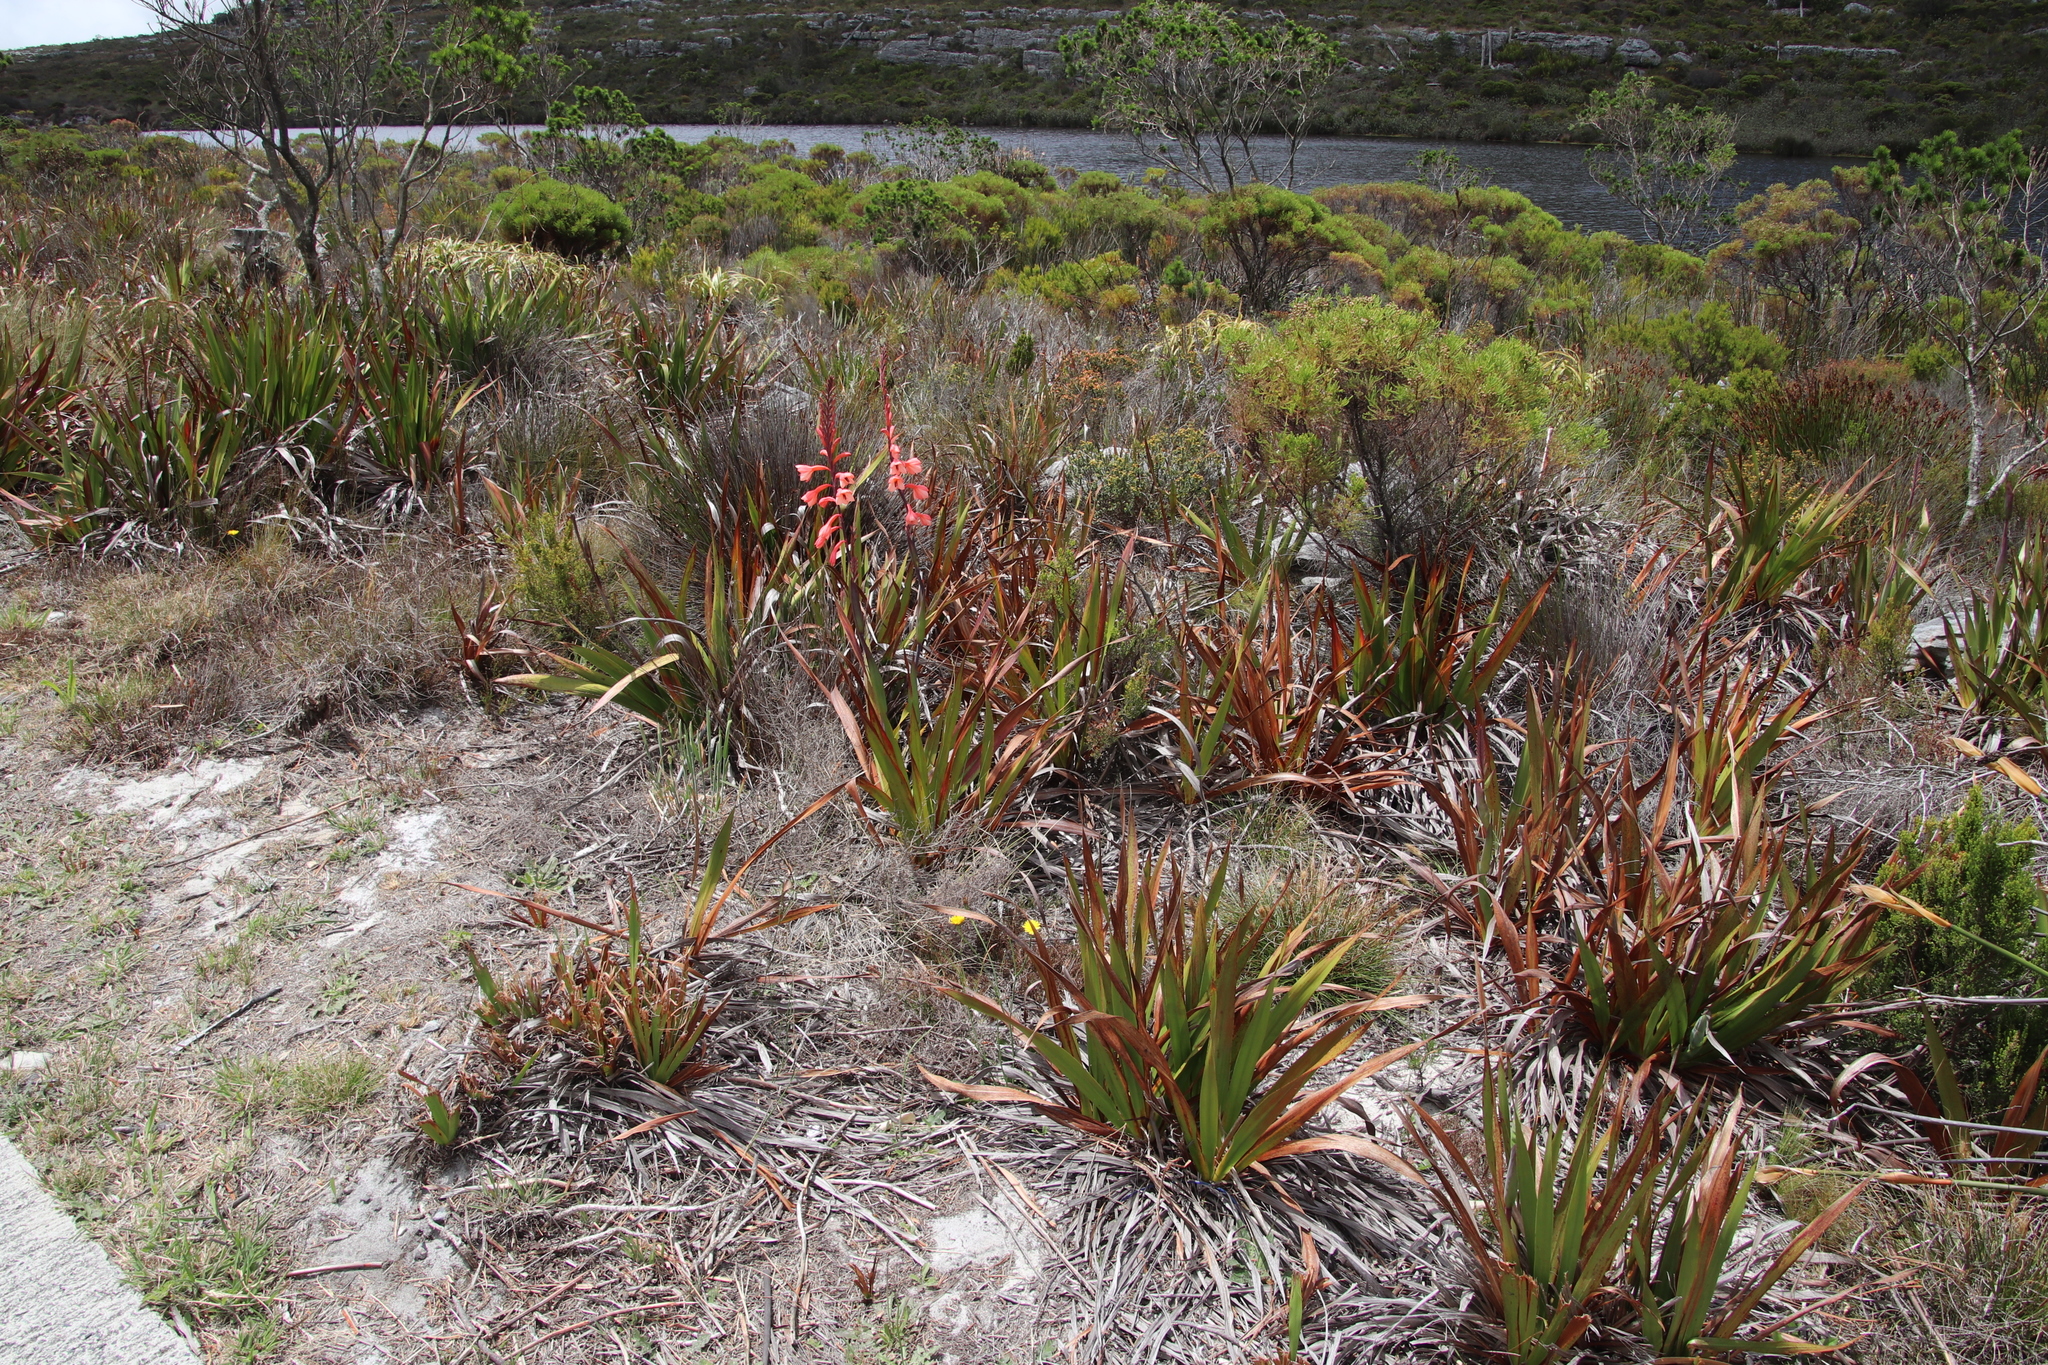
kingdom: Plantae
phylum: Tracheophyta
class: Liliopsida
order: Asparagales
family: Iridaceae
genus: Watsonia
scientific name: Watsonia tabularis
